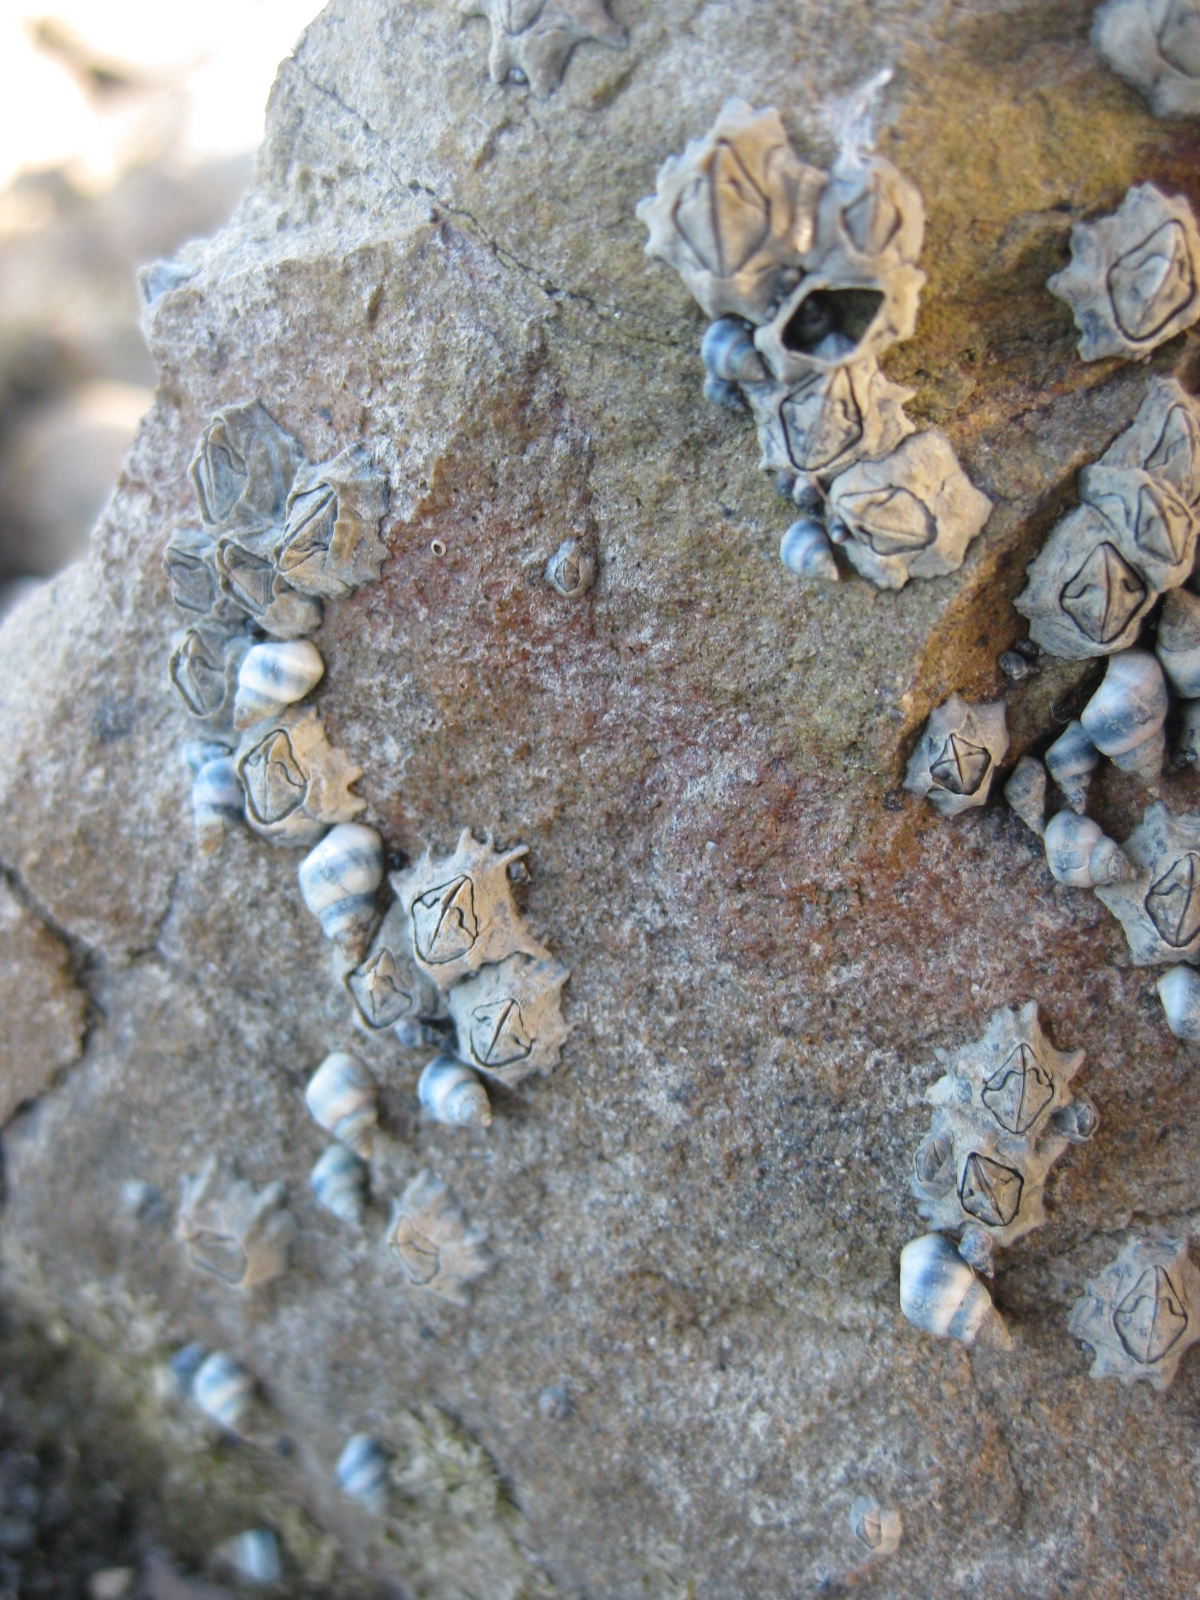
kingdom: Animalia
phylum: Arthropoda
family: Elminiidae
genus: Austrominius
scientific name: Austrominius modestus
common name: Australasian barnacle
